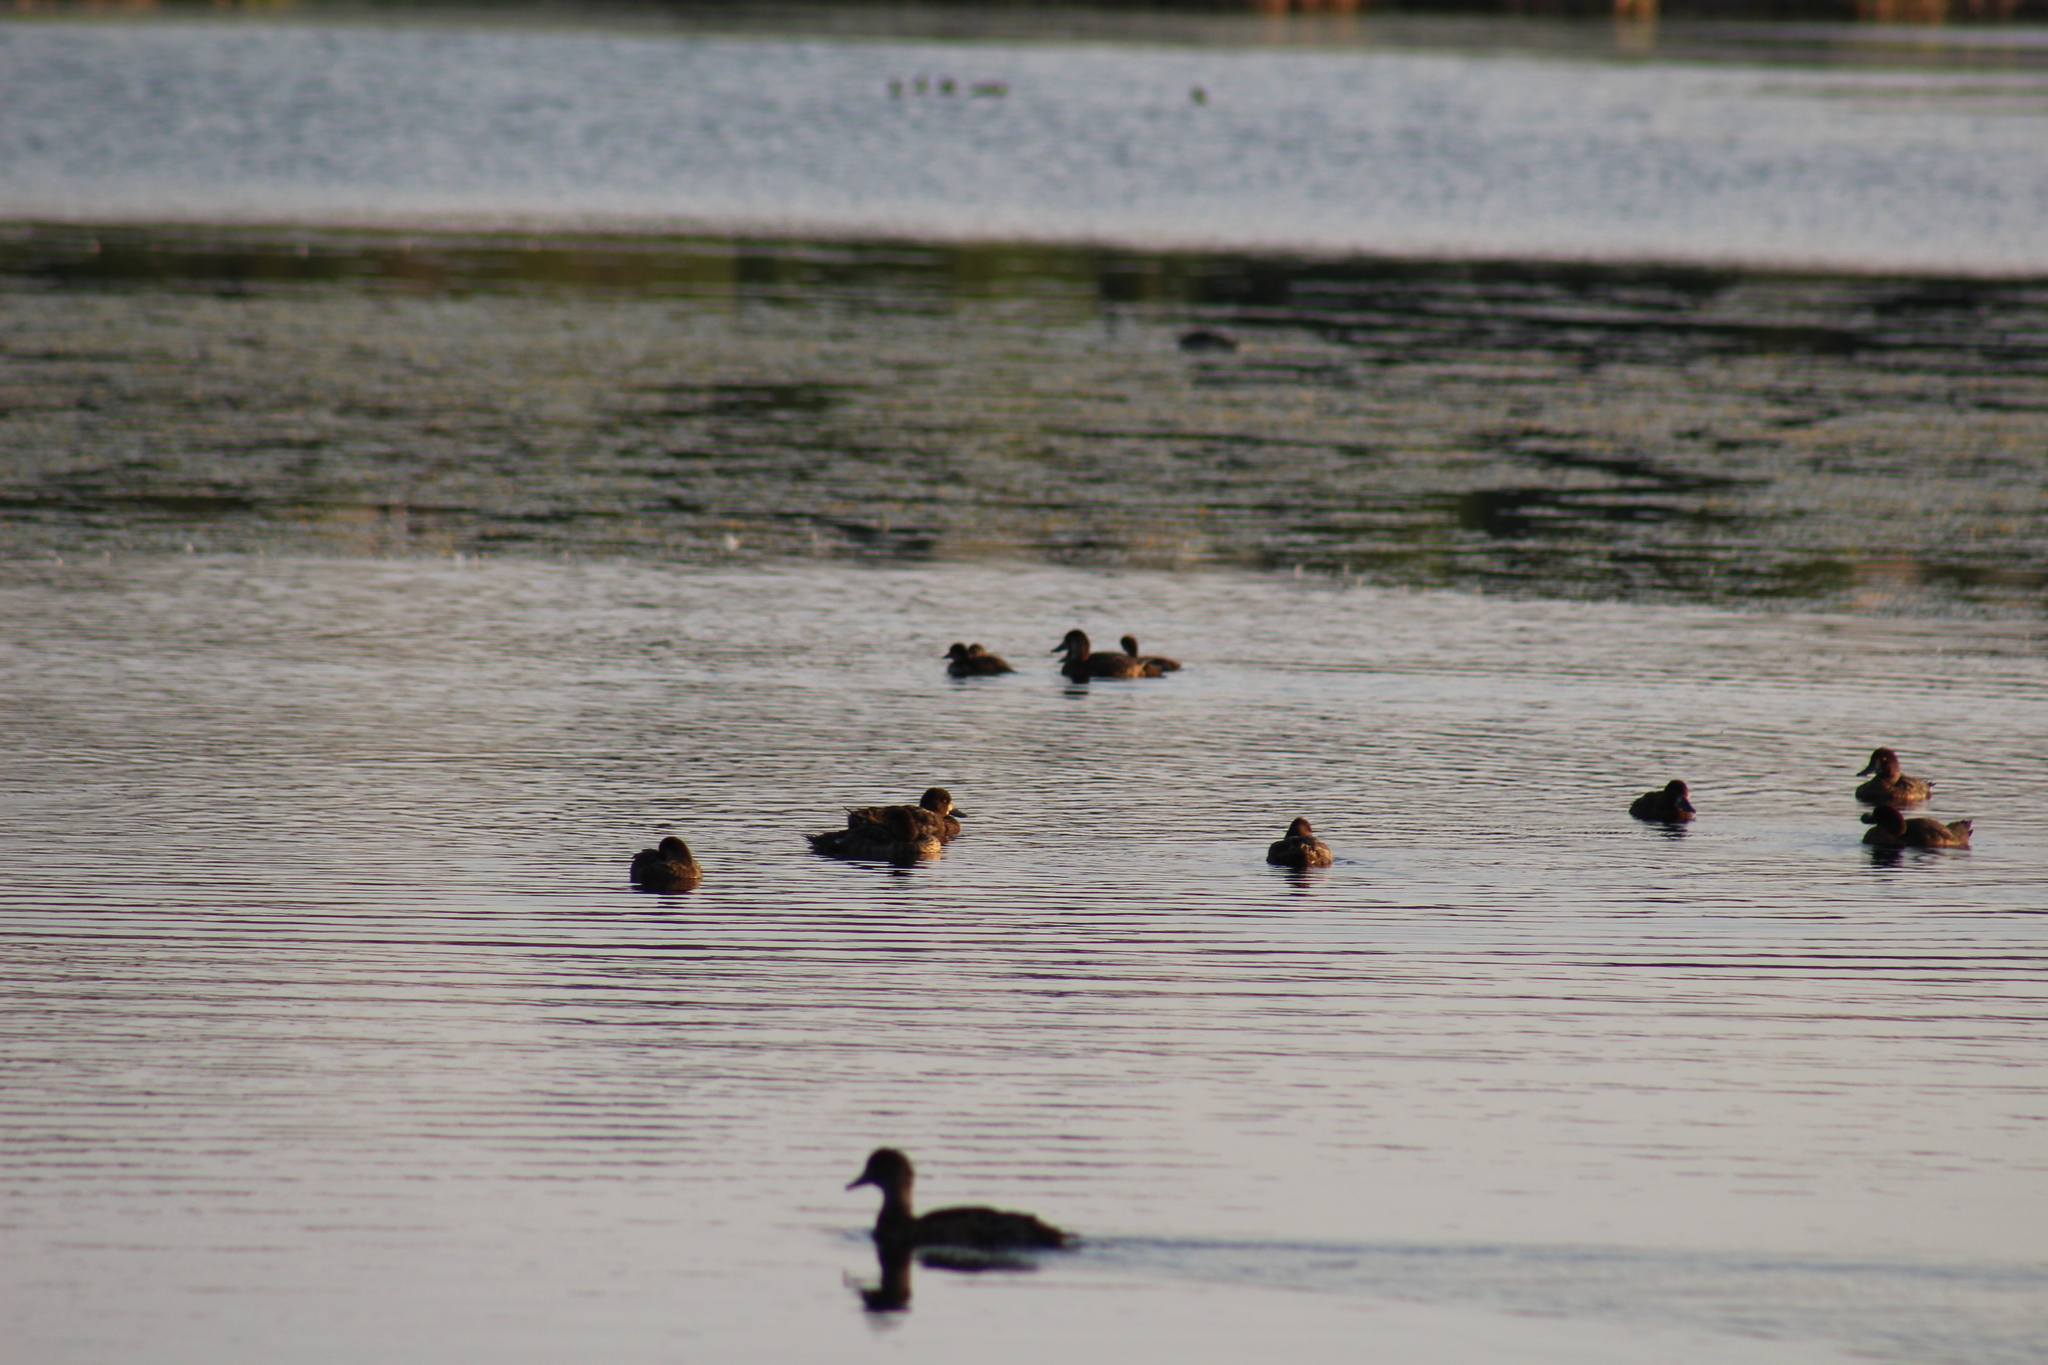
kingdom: Animalia
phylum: Chordata
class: Aves
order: Anseriformes
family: Anatidae
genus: Aythya
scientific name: Aythya affinis
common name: Lesser scaup
